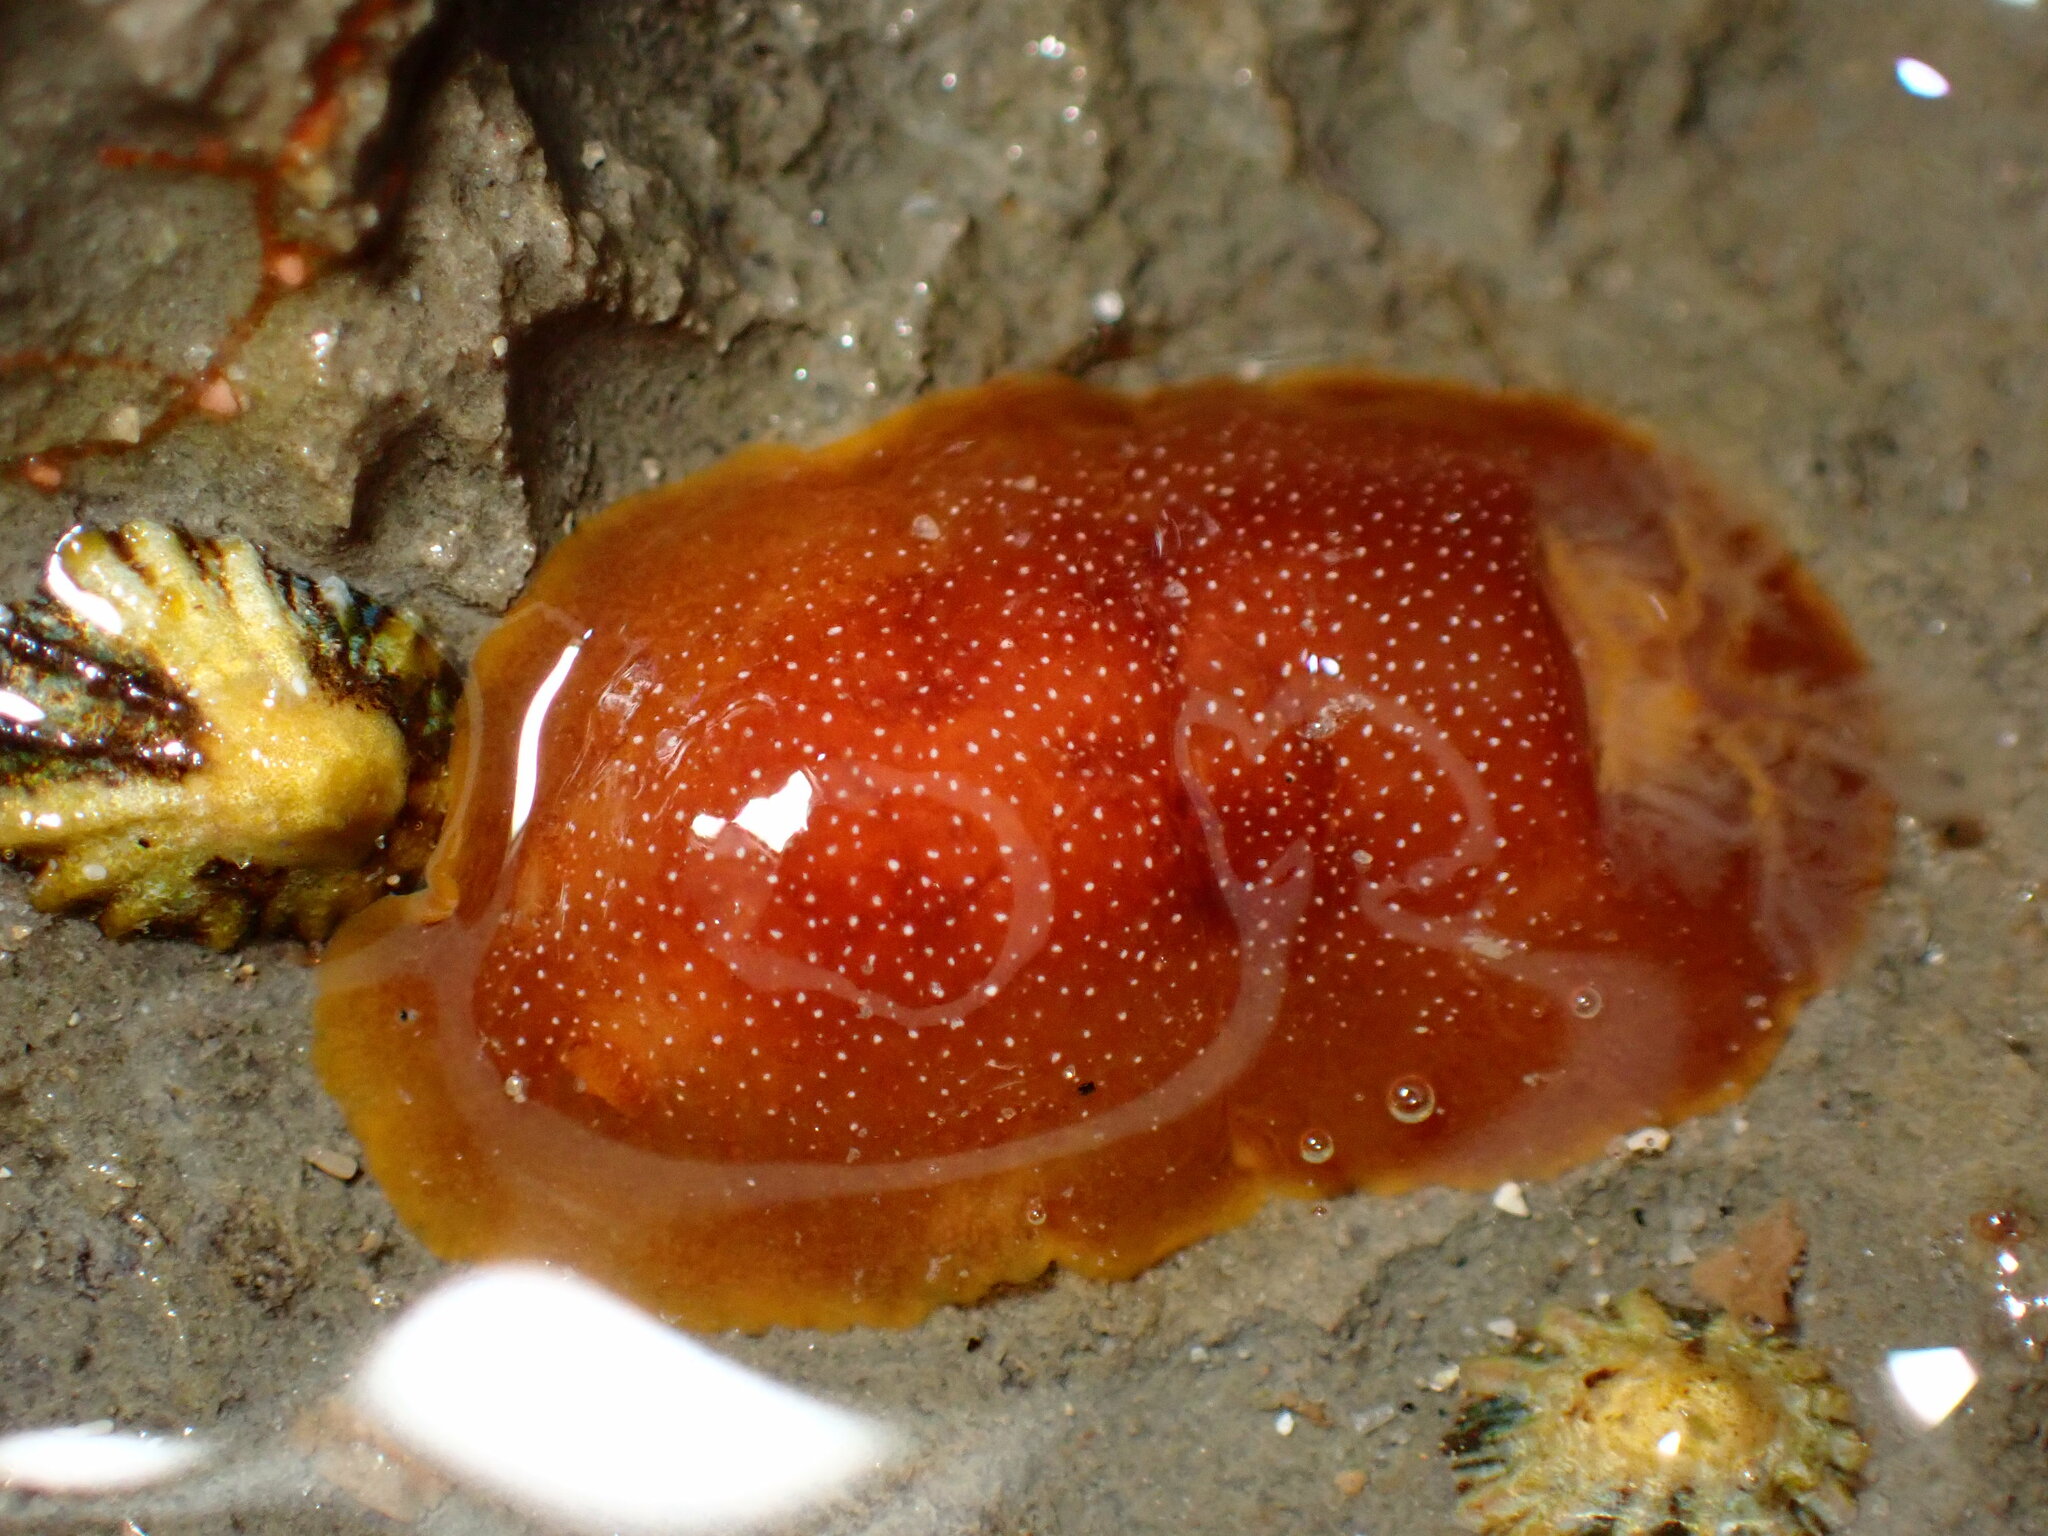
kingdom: Animalia
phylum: Mollusca
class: Gastropoda
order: Nudibranchia
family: Dendrodorididae
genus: Doriopsilla
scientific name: Doriopsilla albopunctata
